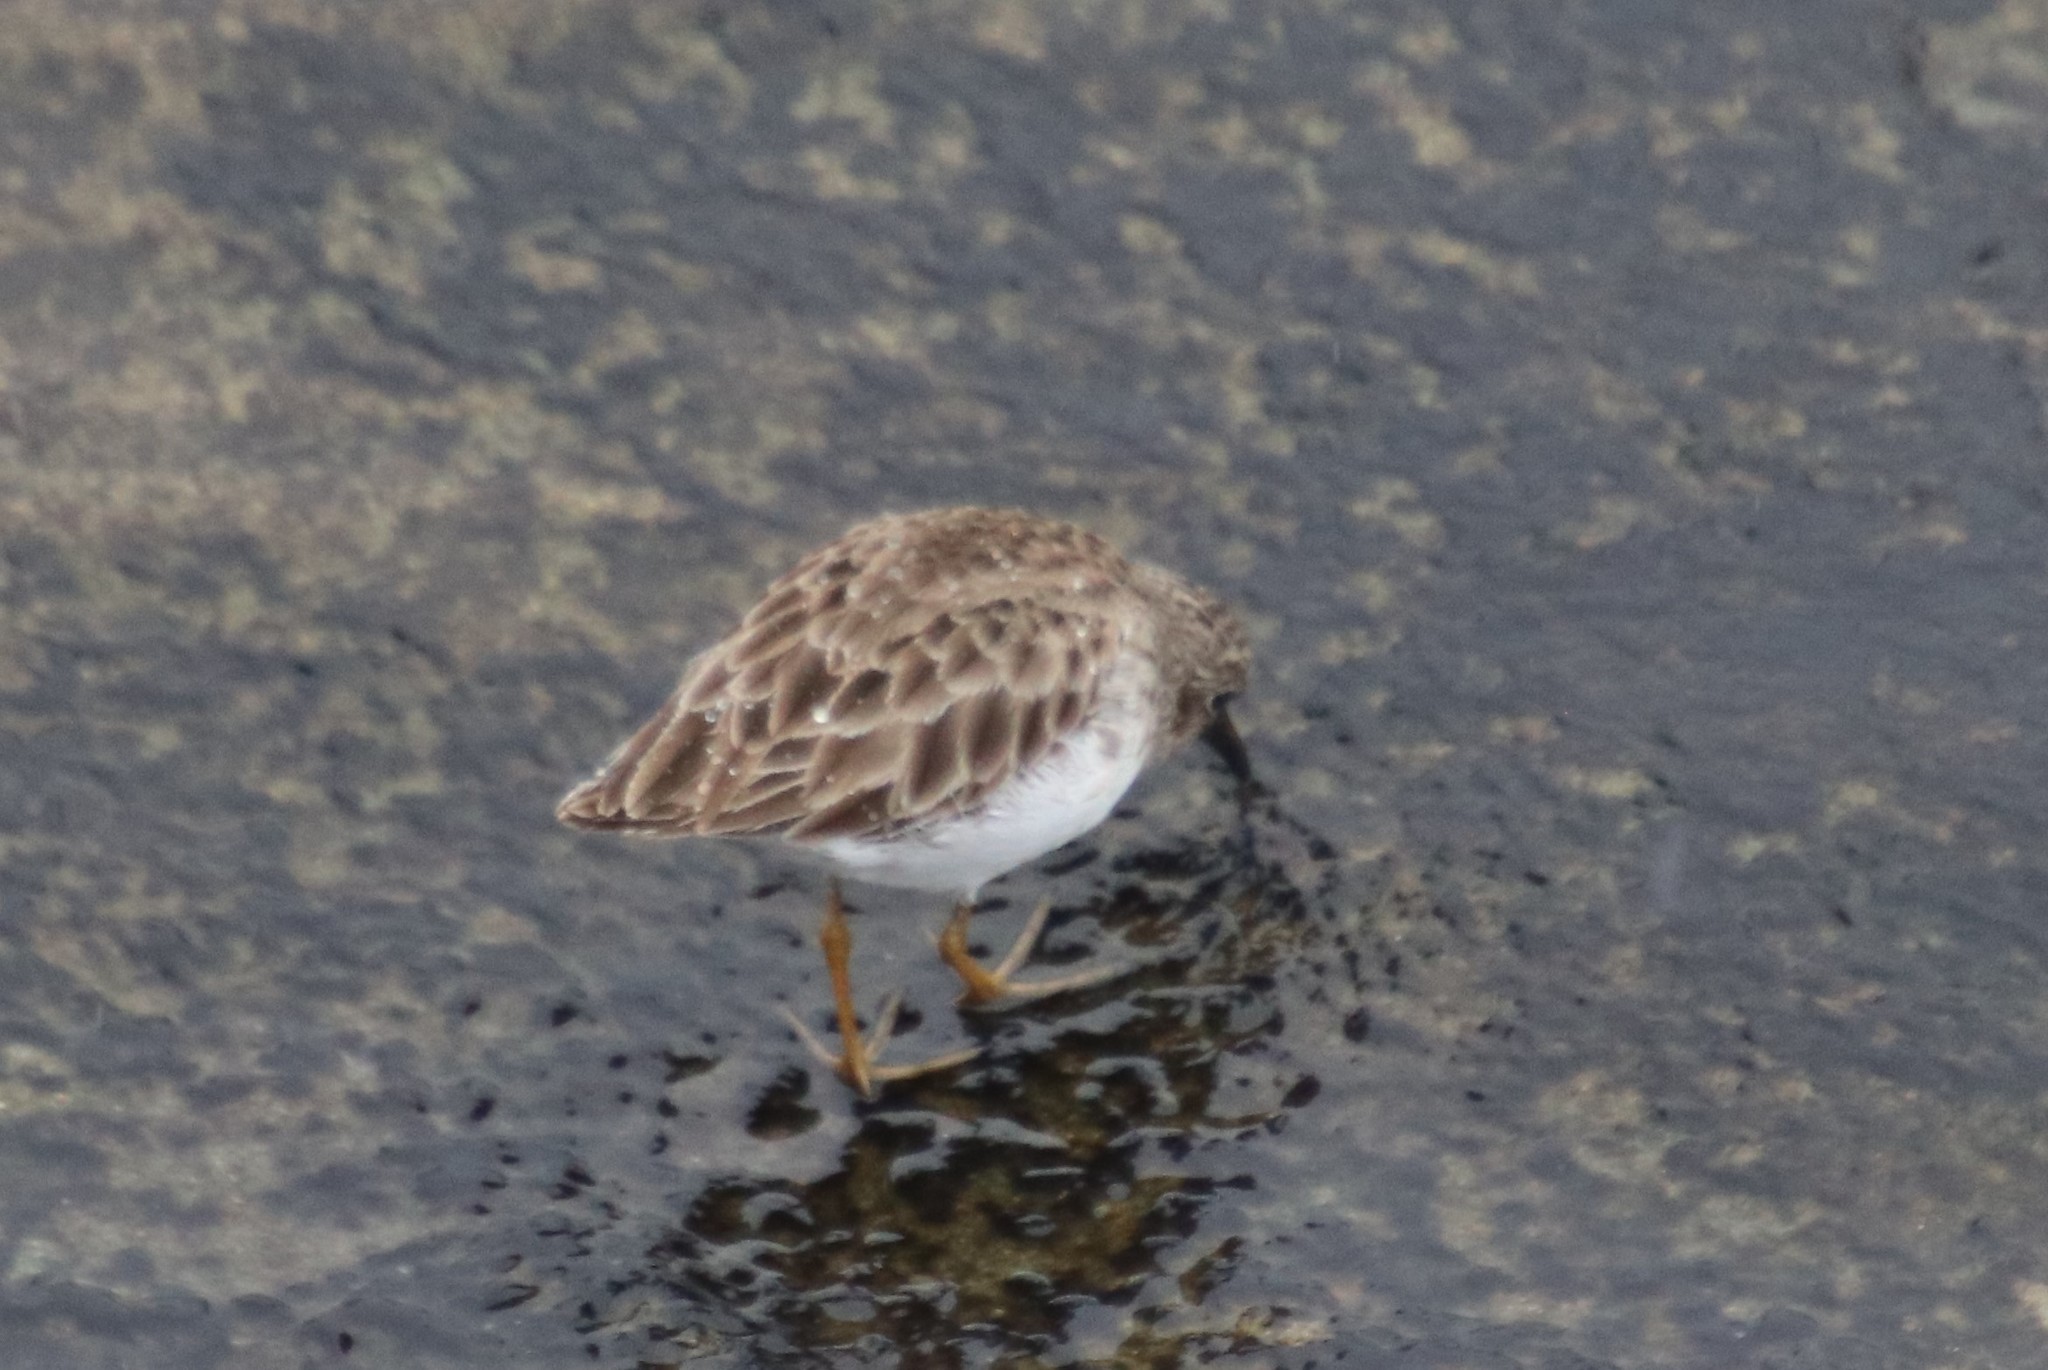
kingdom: Animalia
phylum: Chordata
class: Aves
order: Charadriiformes
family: Scolopacidae
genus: Calidris
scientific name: Calidris minutilla
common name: Least sandpiper
